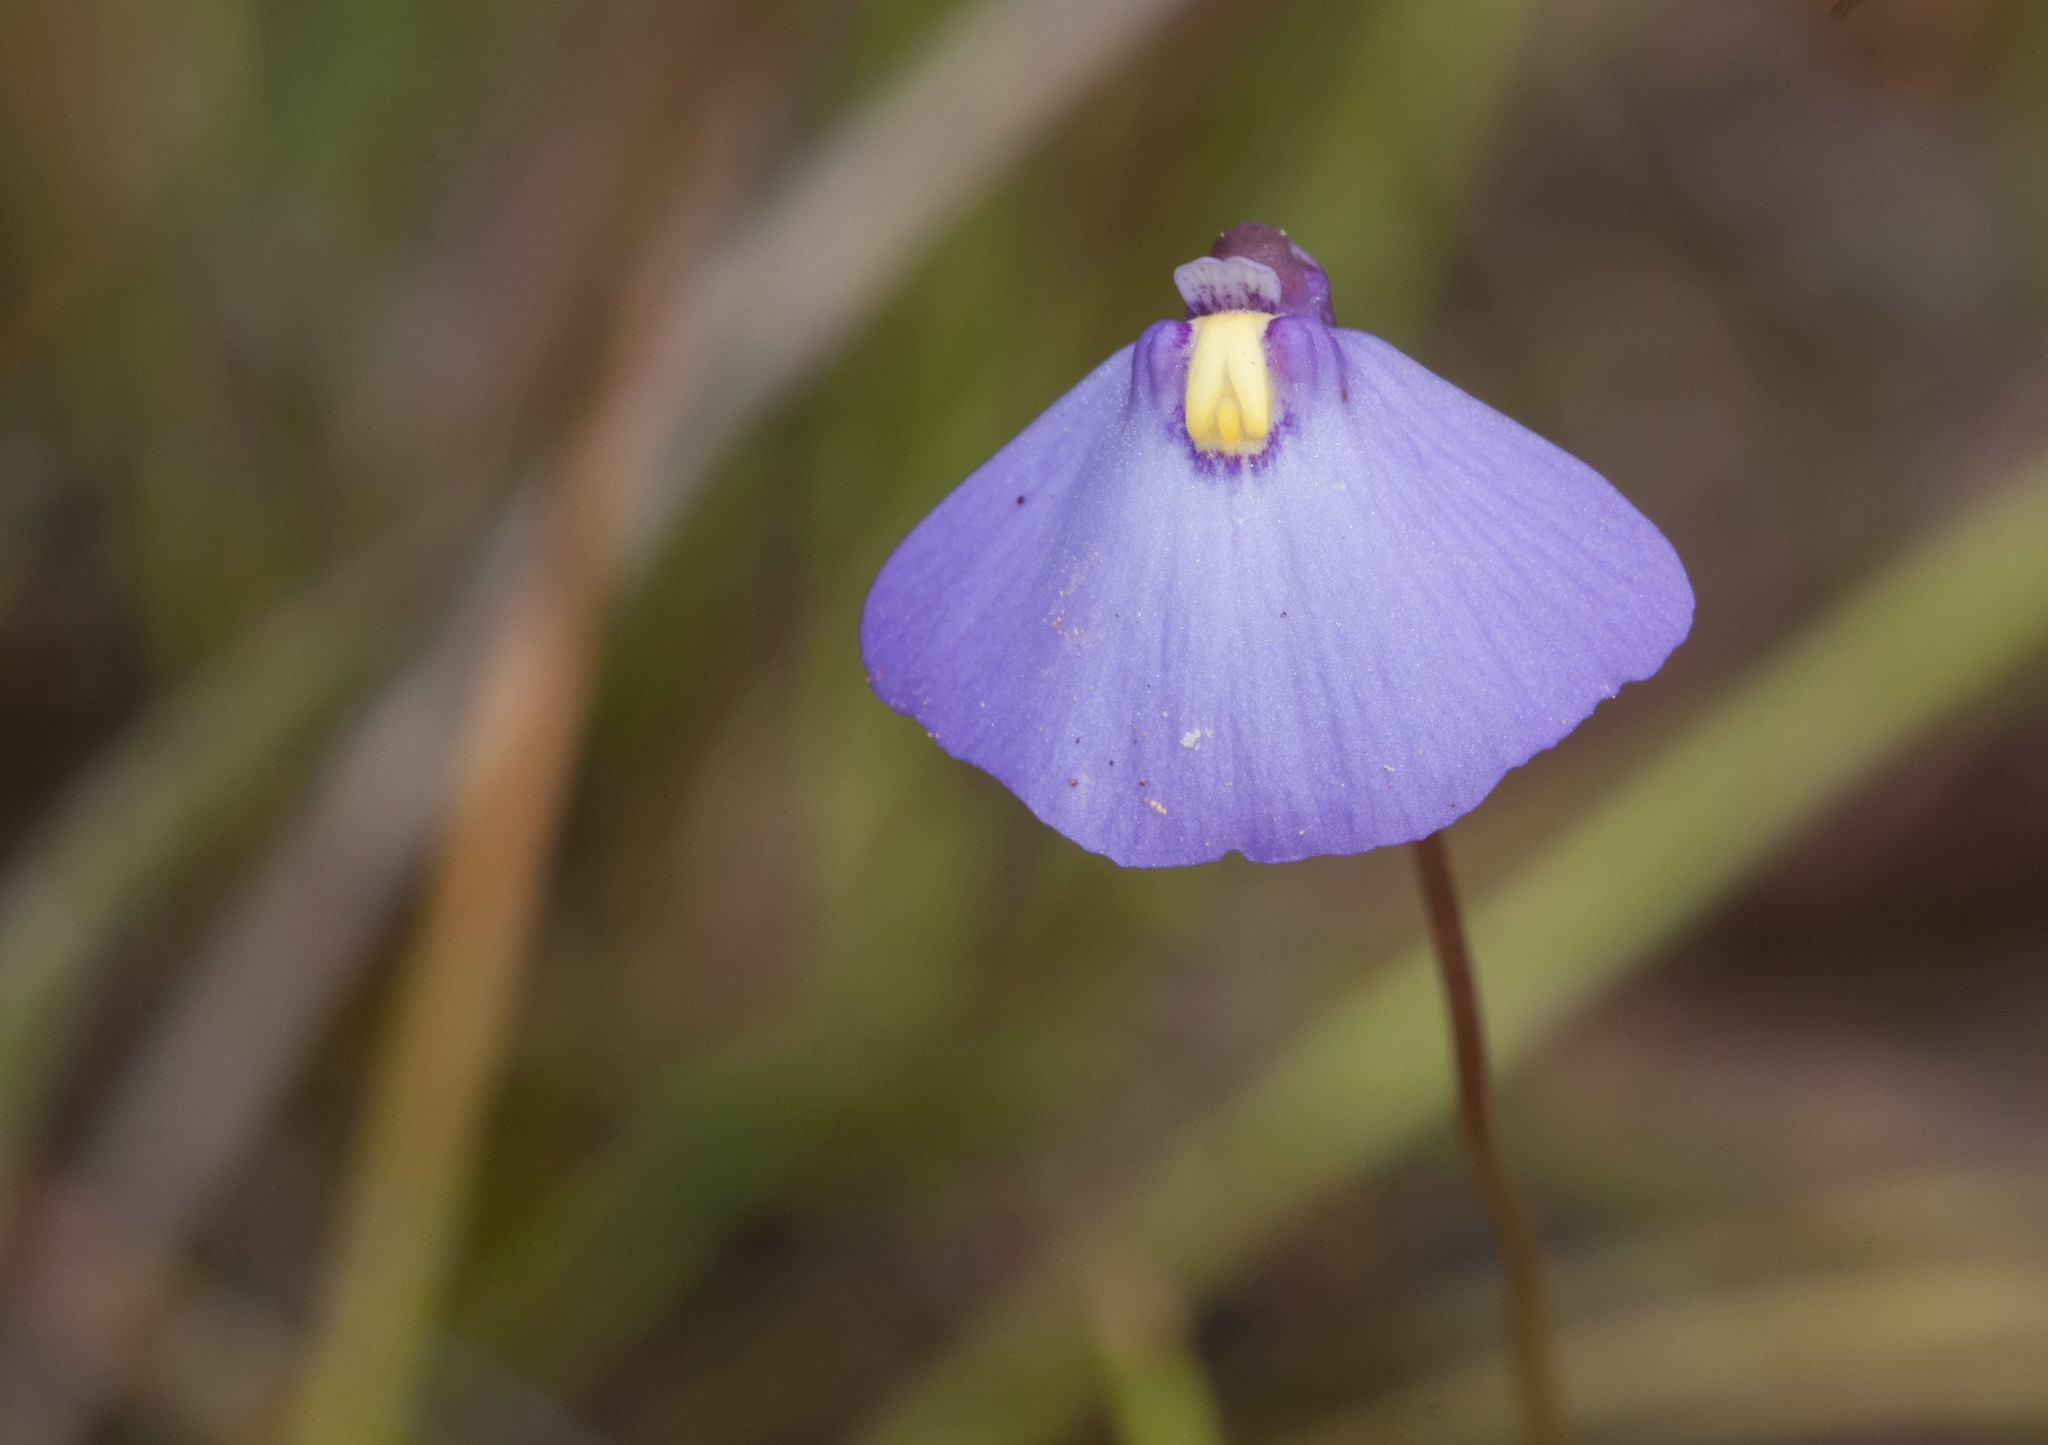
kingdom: Plantae
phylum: Tracheophyta
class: Magnoliopsida
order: Lamiales
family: Lentibulariaceae
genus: Utricularia
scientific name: Utricularia barkeri
